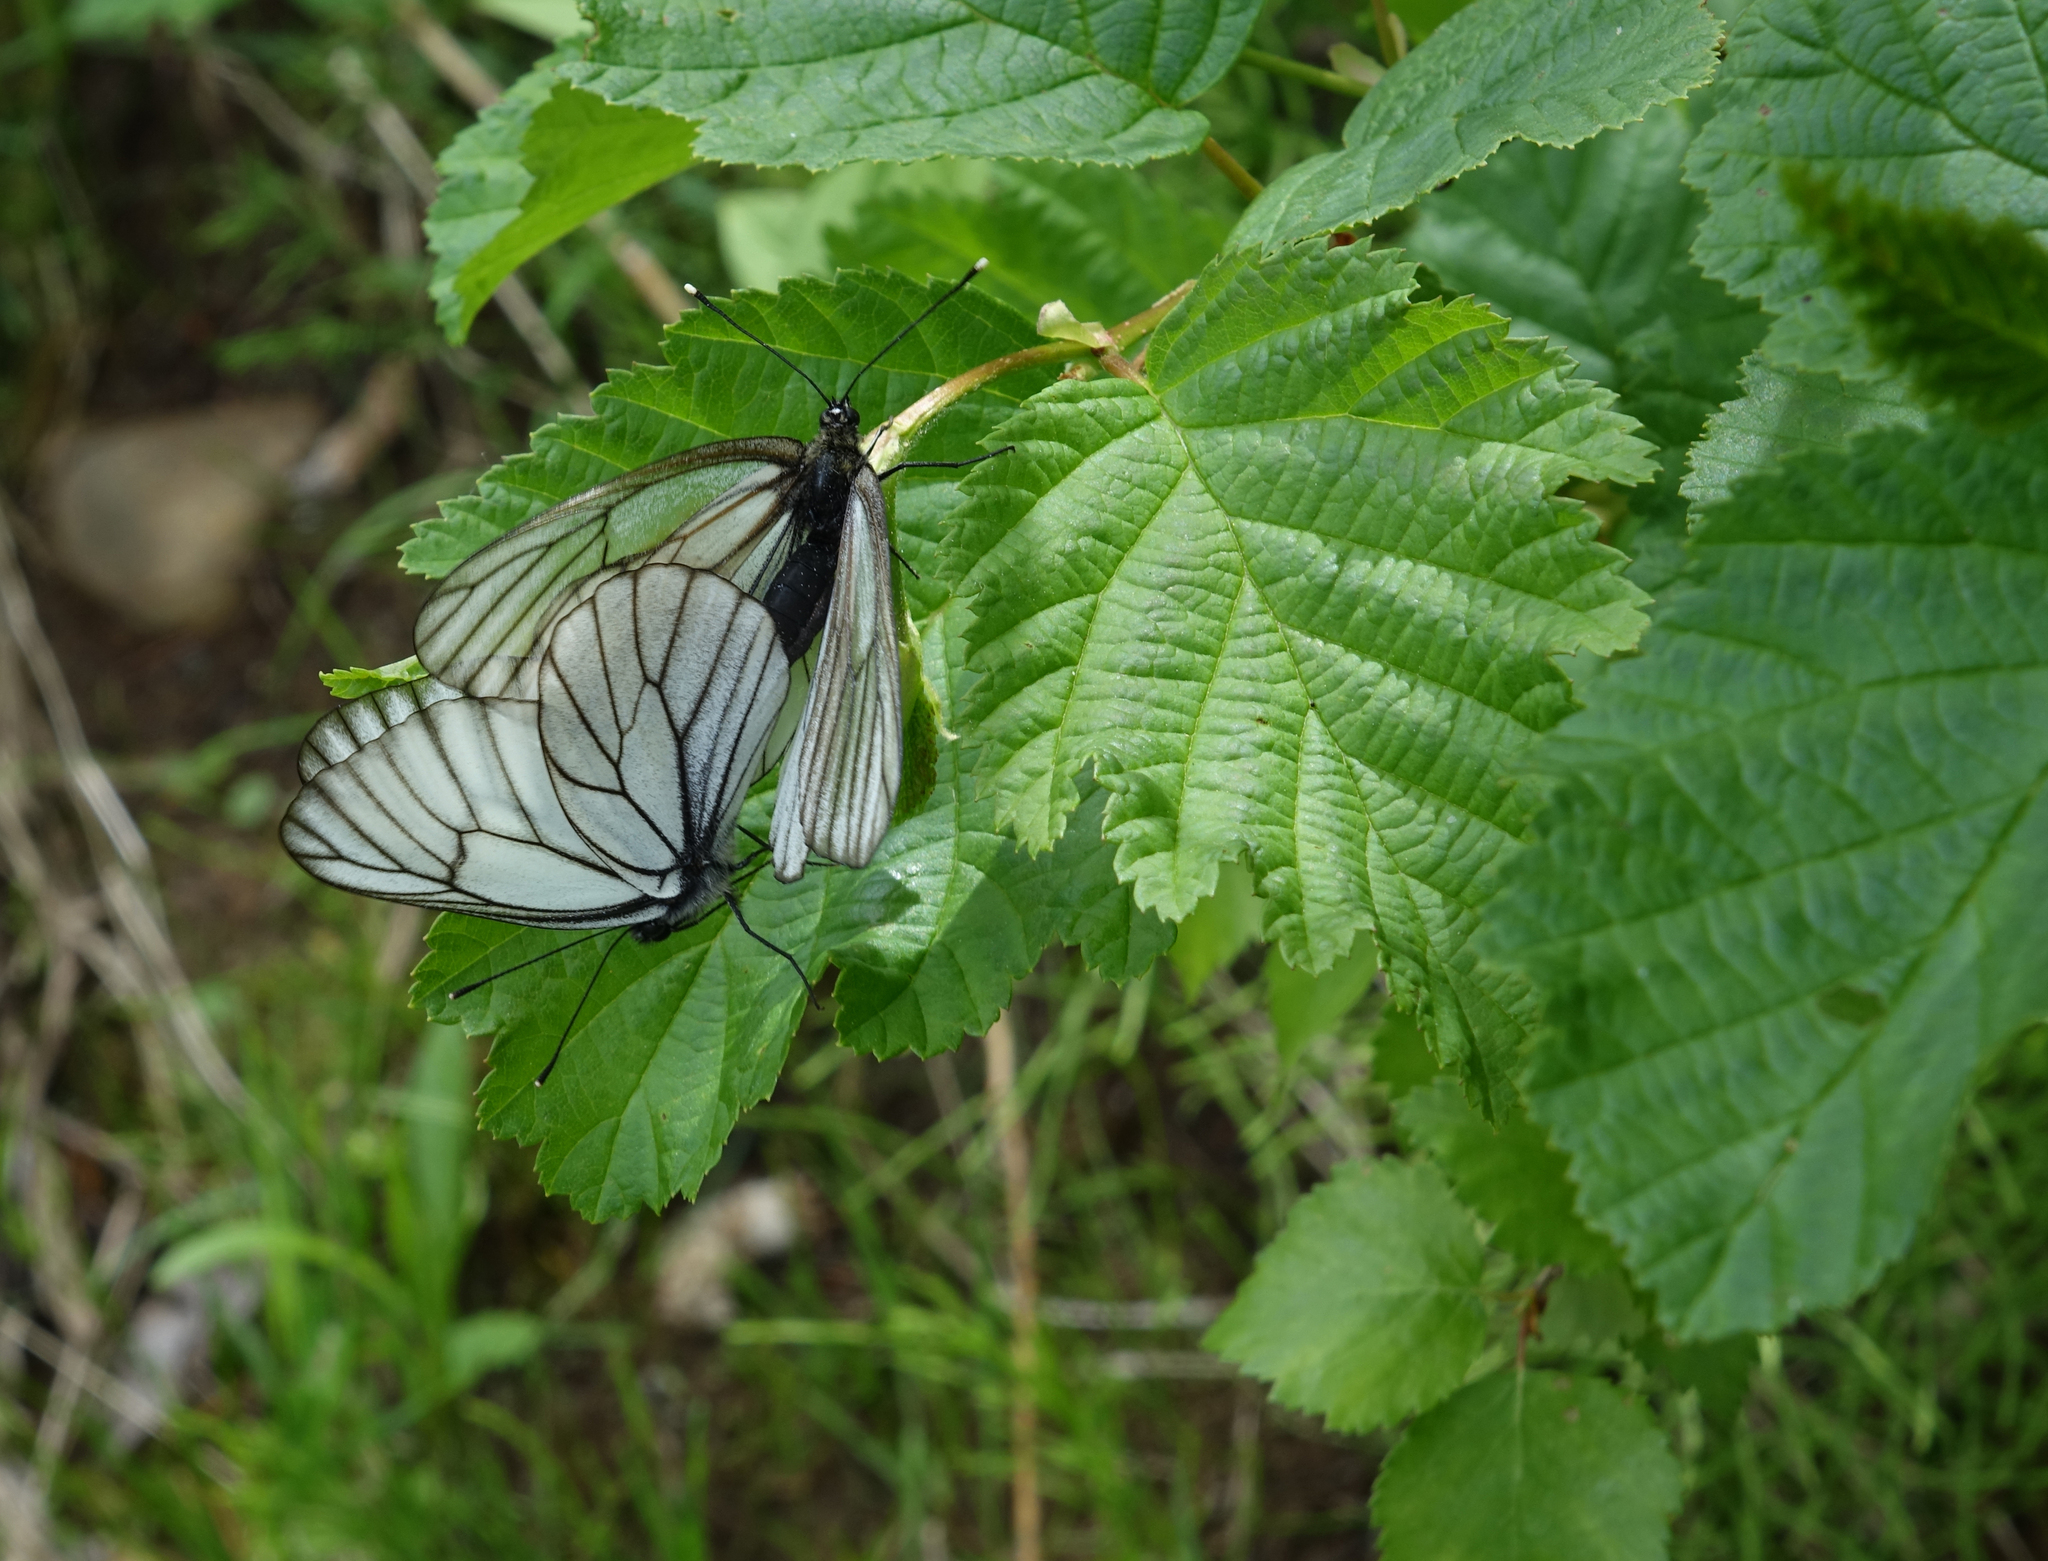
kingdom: Plantae
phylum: Tracheophyta
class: Magnoliopsida
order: Fagales
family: Betulaceae
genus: Alnus
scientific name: Alnus hirsuta
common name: Manchurian alder
